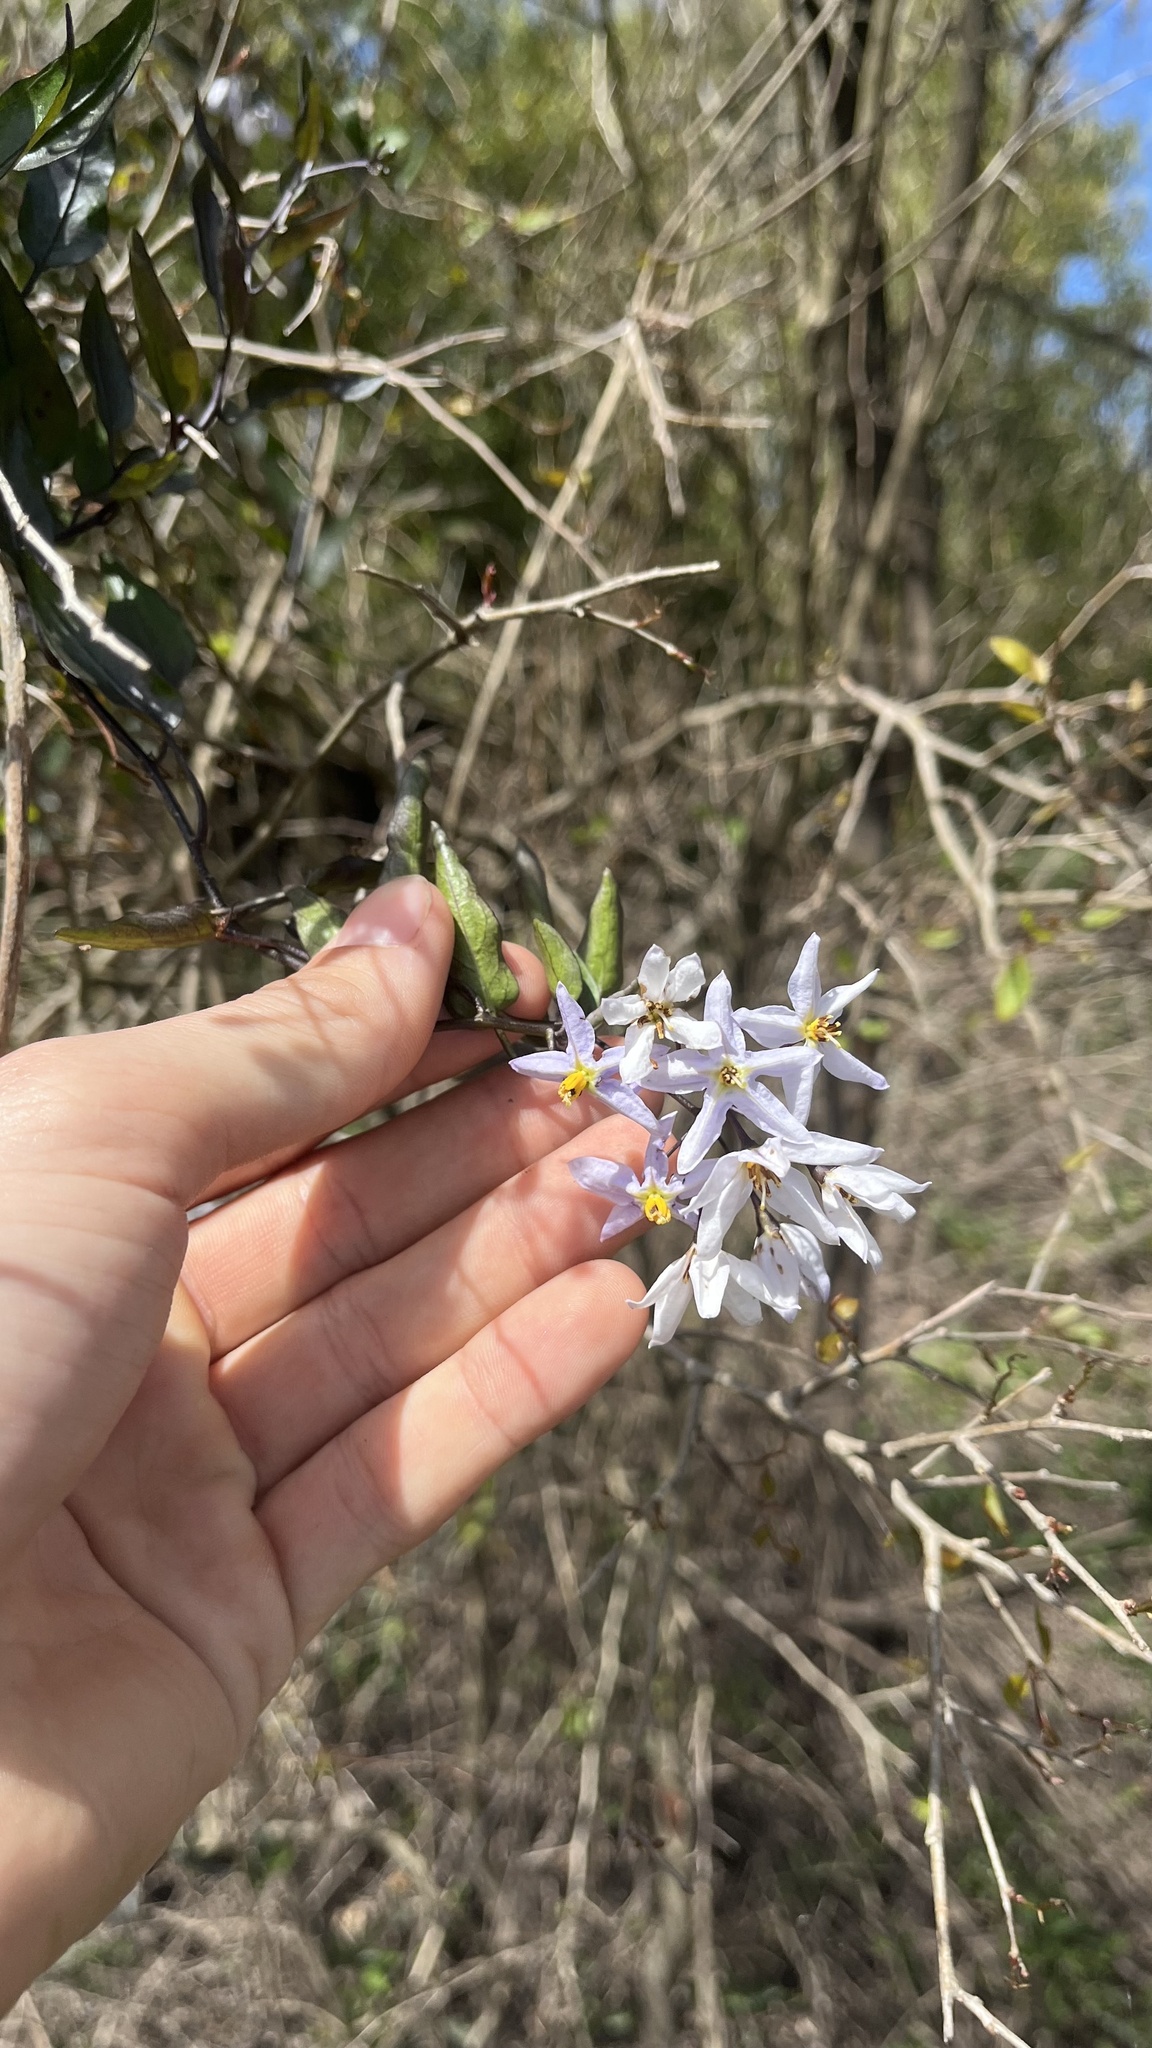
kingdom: Plantae
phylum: Tracheophyta
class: Magnoliopsida
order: Solanales
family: Solanaceae
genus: Solanum
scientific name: Solanum laxum
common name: Nightshade
